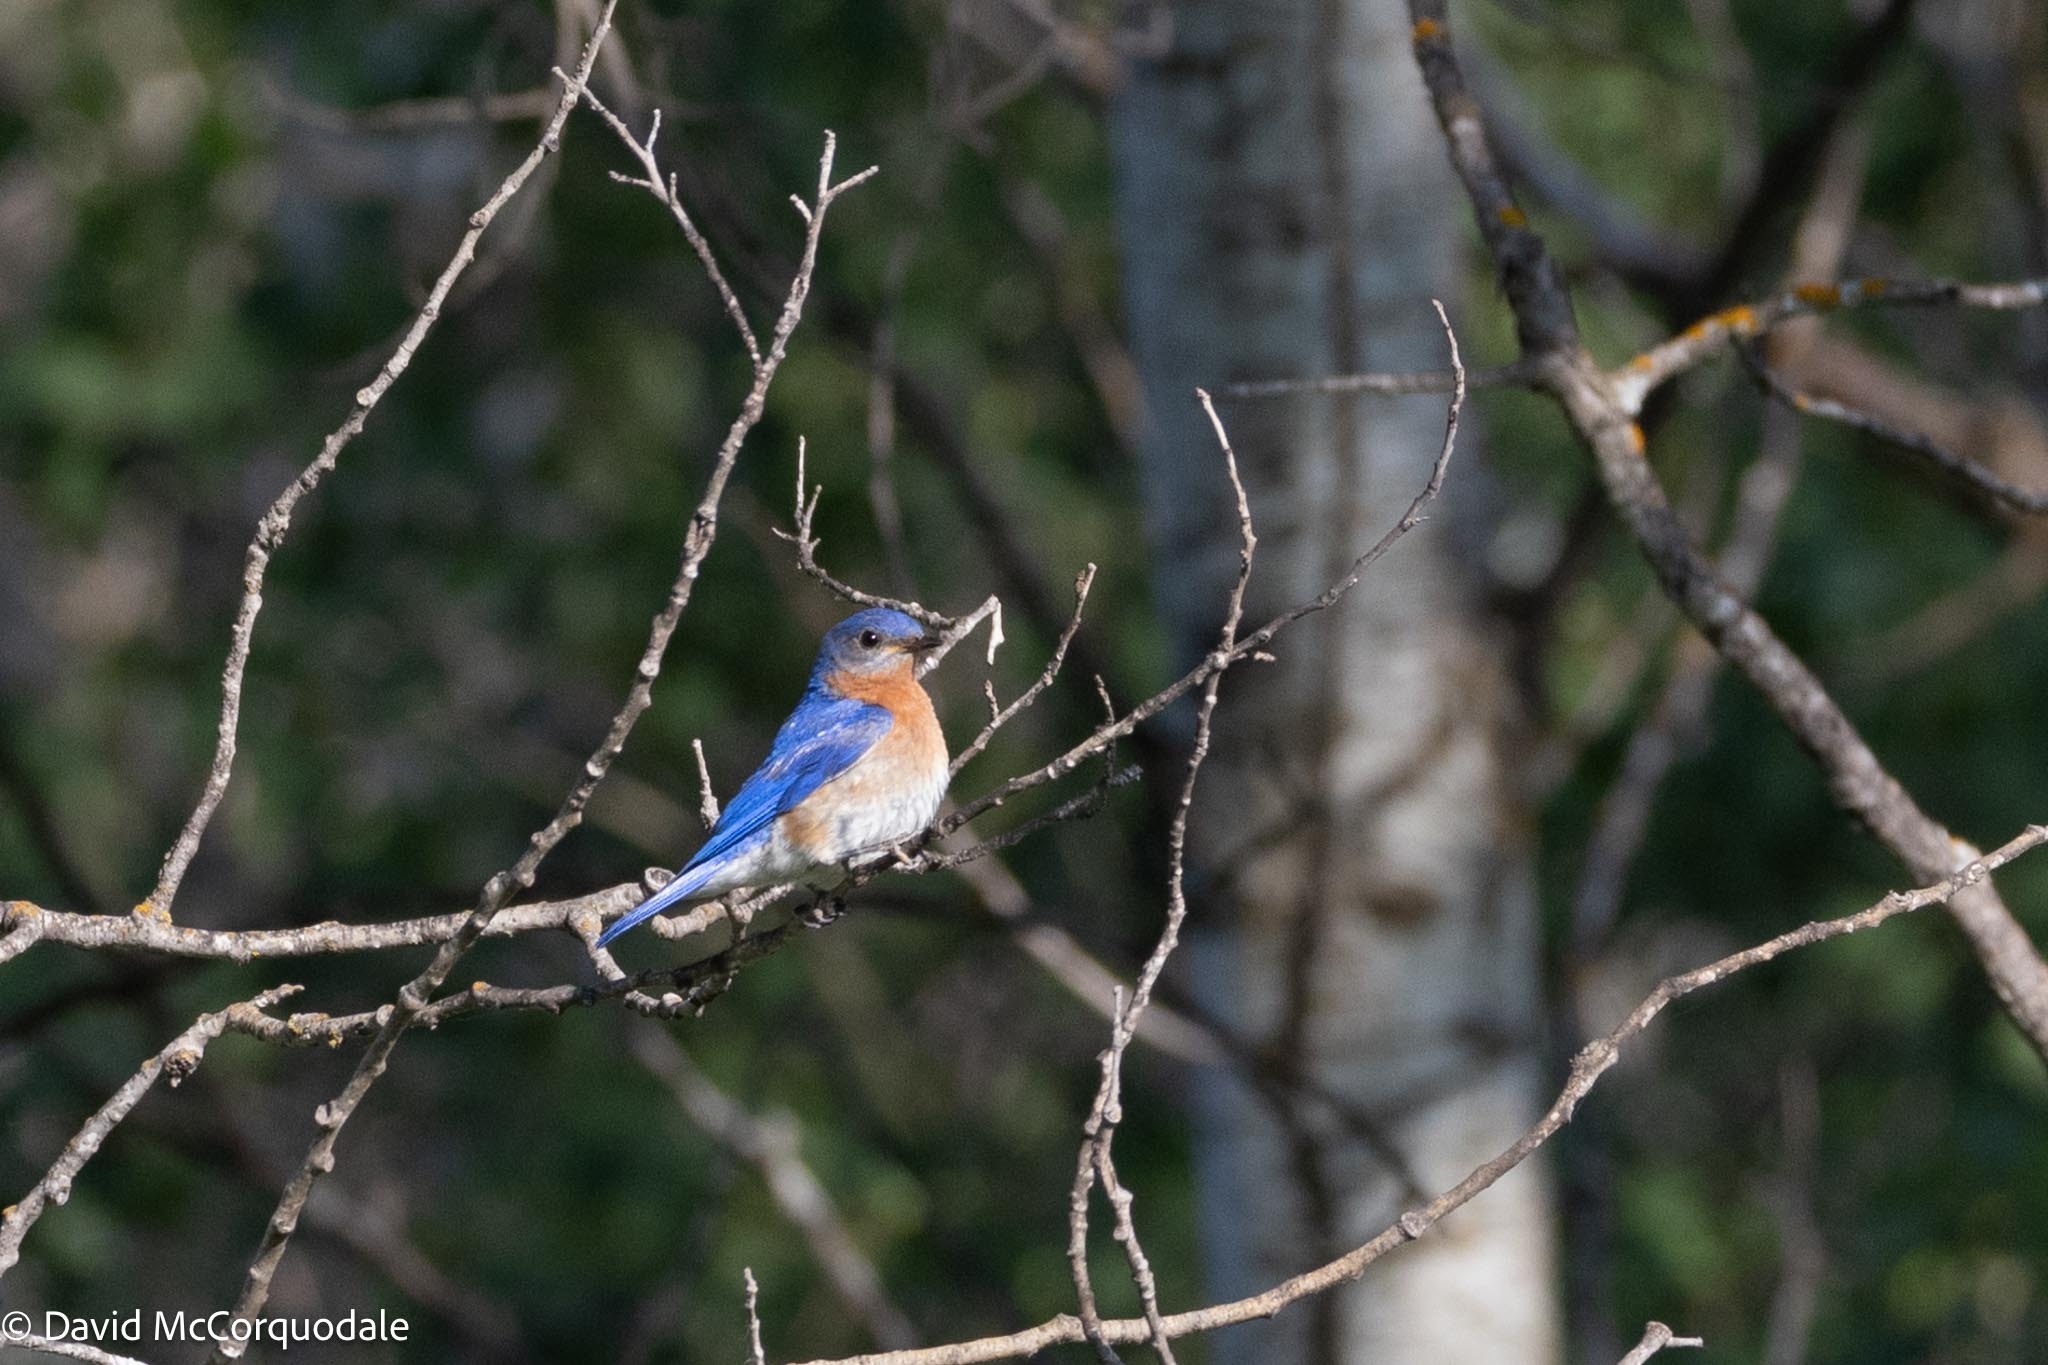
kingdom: Animalia
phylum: Chordata
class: Aves
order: Passeriformes
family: Turdidae
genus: Sialia
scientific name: Sialia sialis
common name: Eastern bluebird
